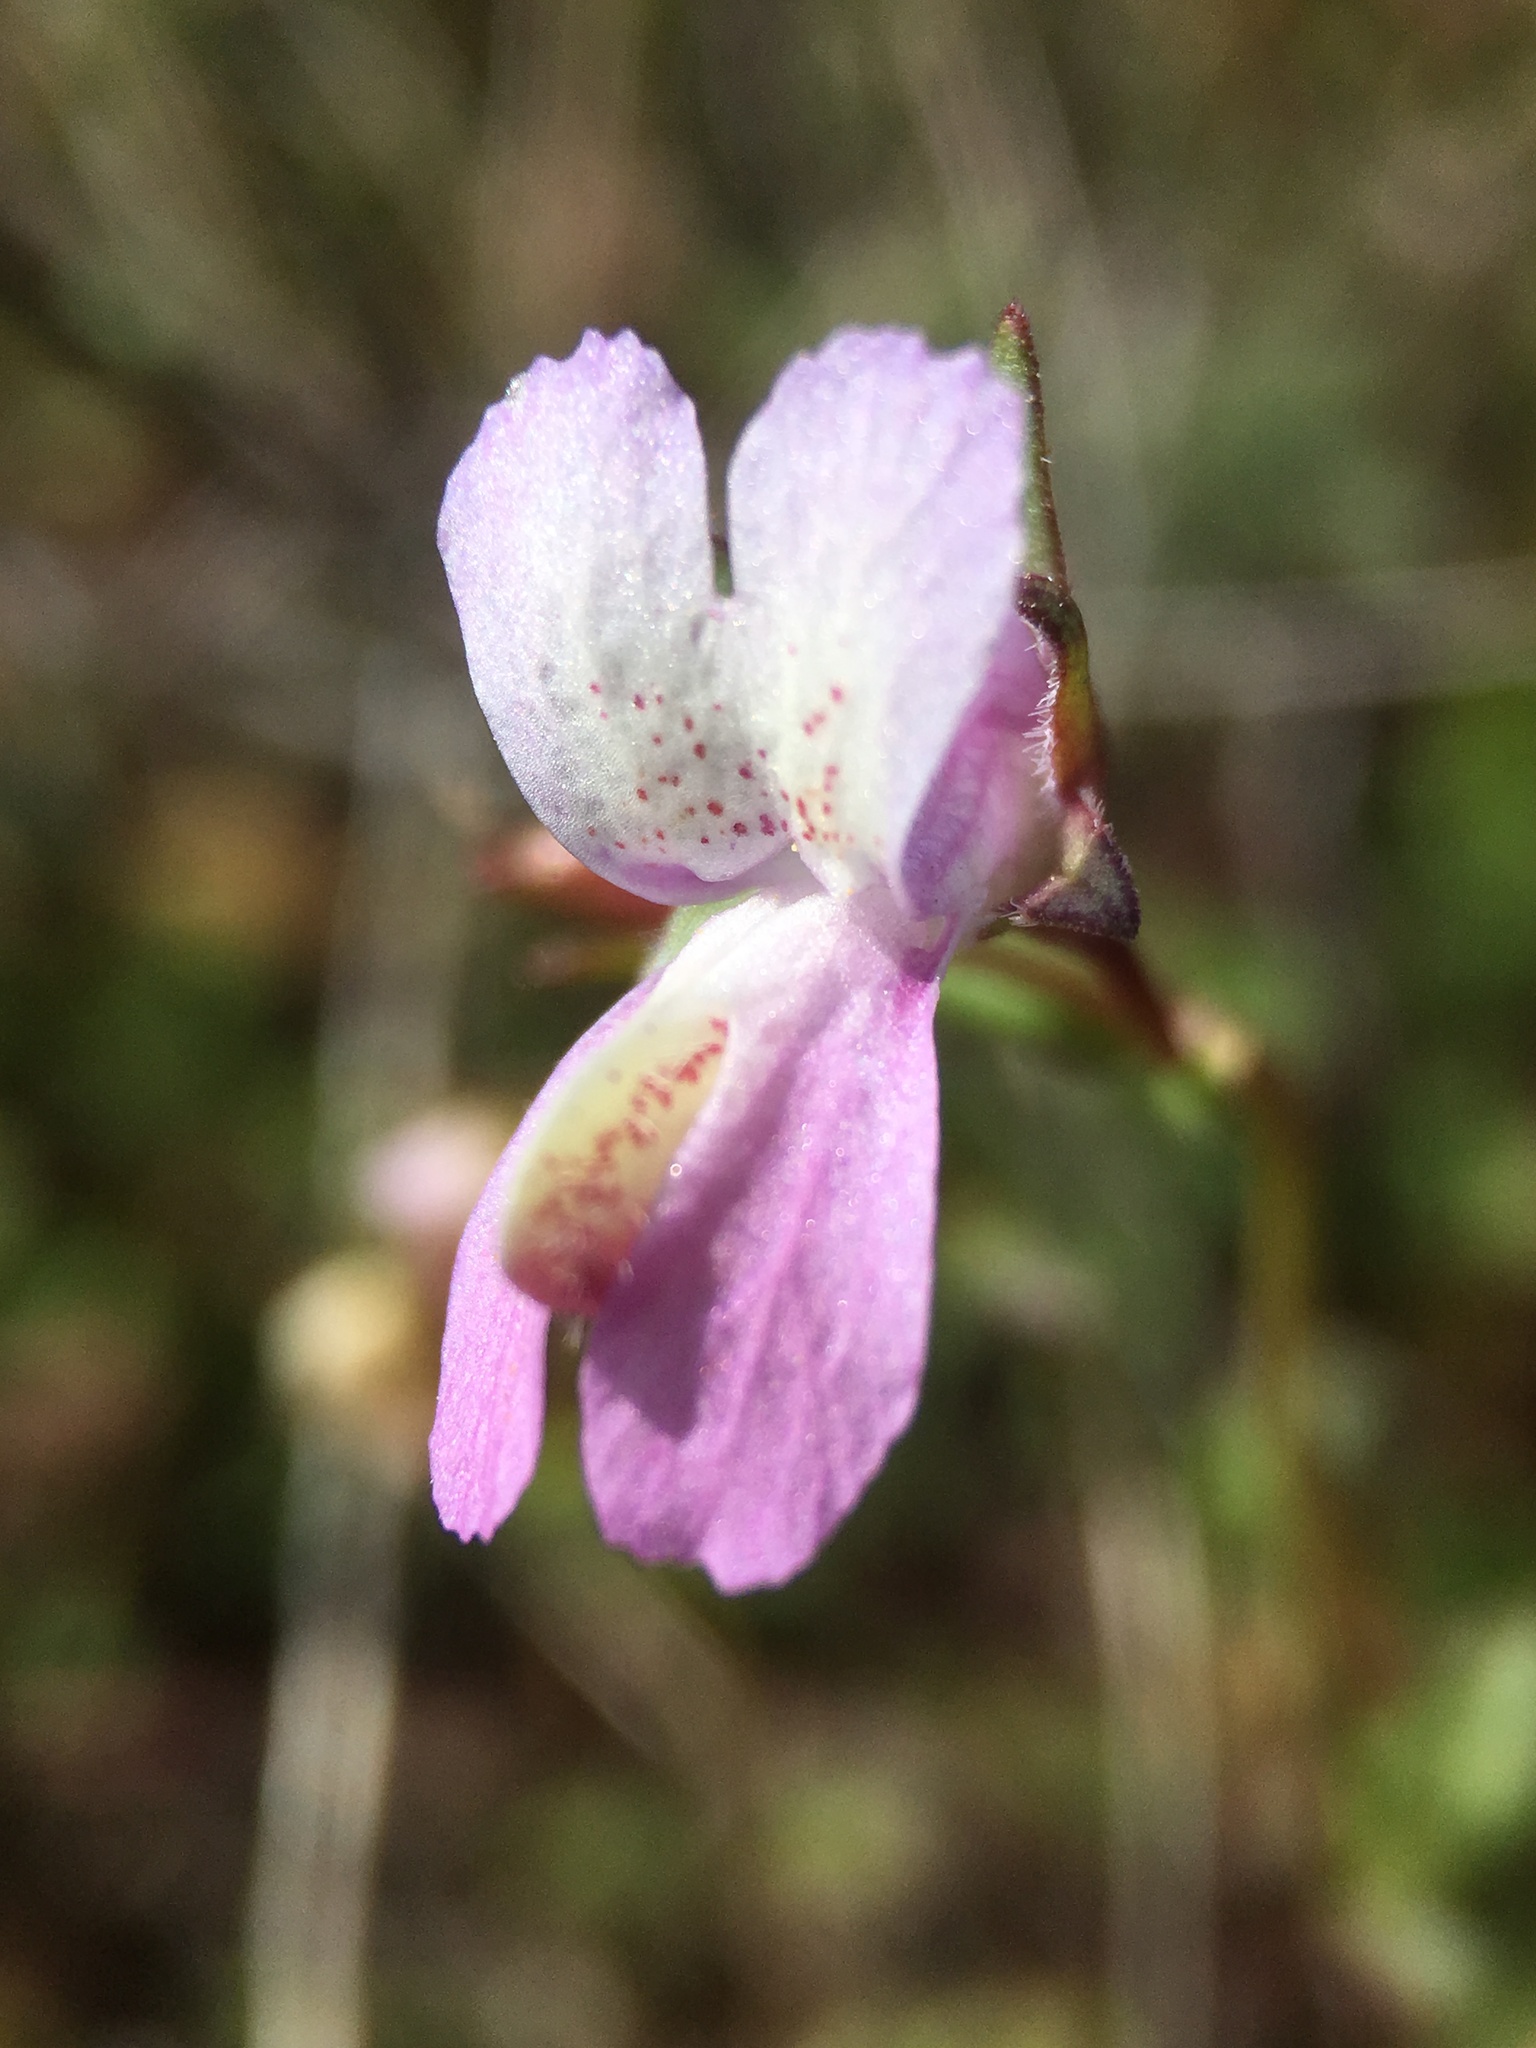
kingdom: Plantae
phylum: Tracheophyta
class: Magnoliopsida
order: Lamiales
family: Plantaginaceae
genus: Collinsia
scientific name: Collinsia sparsiflora
